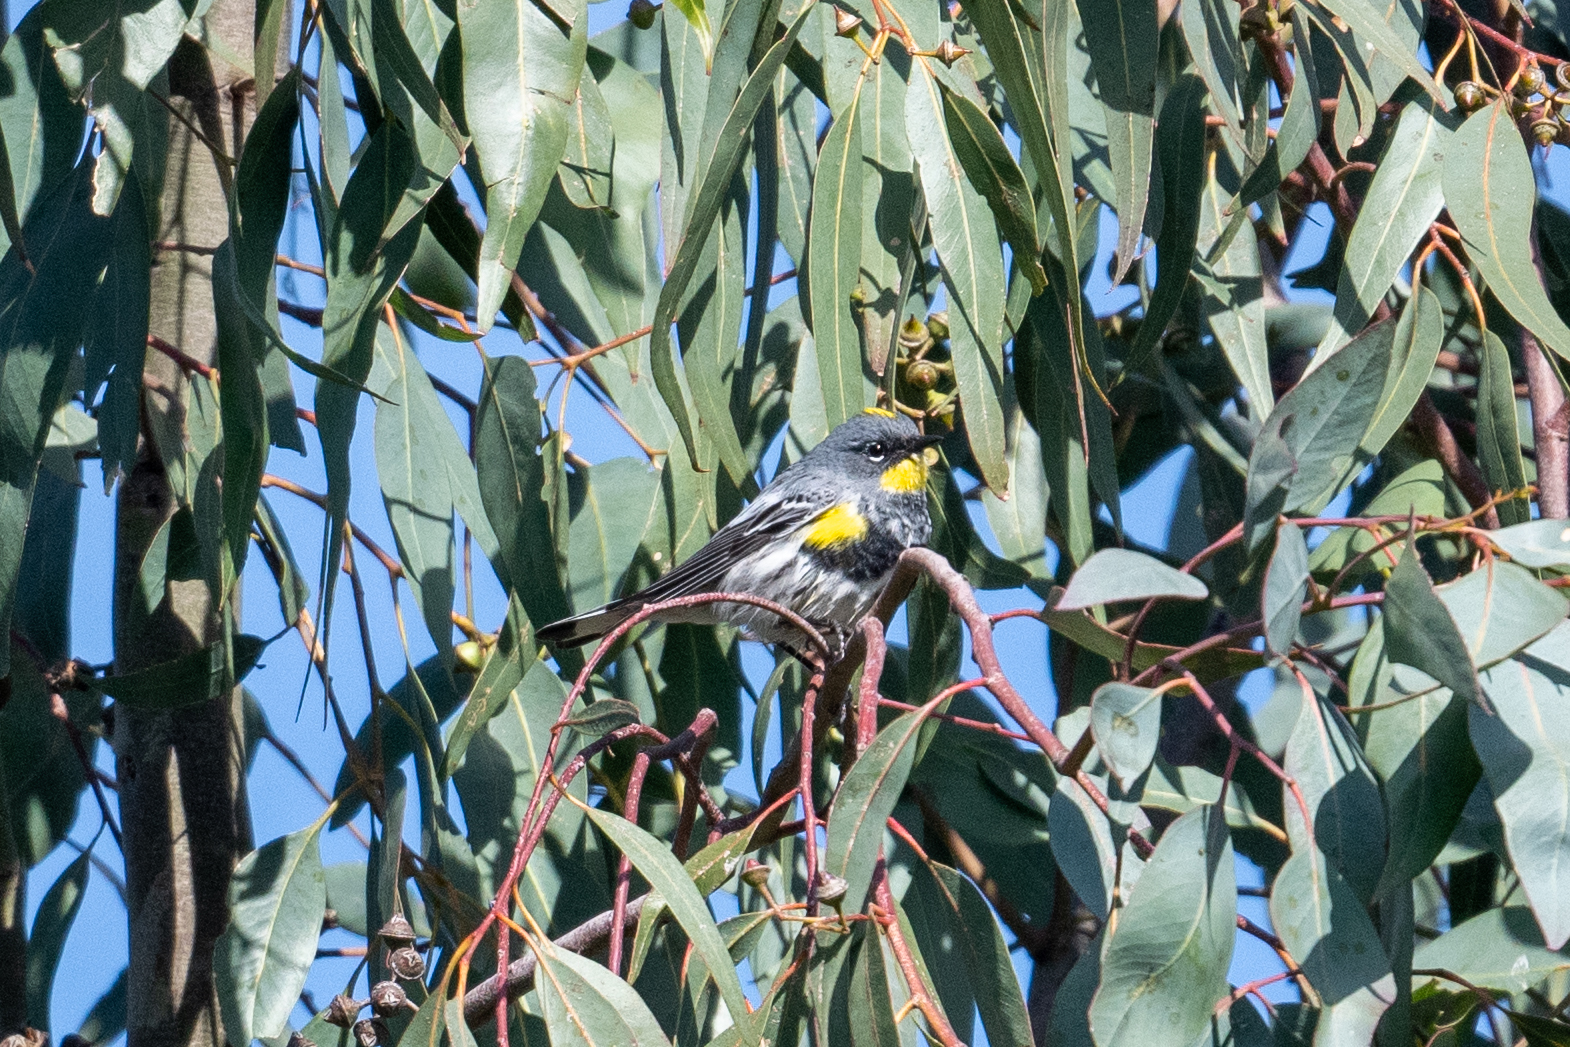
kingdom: Animalia
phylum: Chordata
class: Aves
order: Passeriformes
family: Parulidae
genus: Setophaga
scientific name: Setophaga coronata
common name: Myrtle warbler
